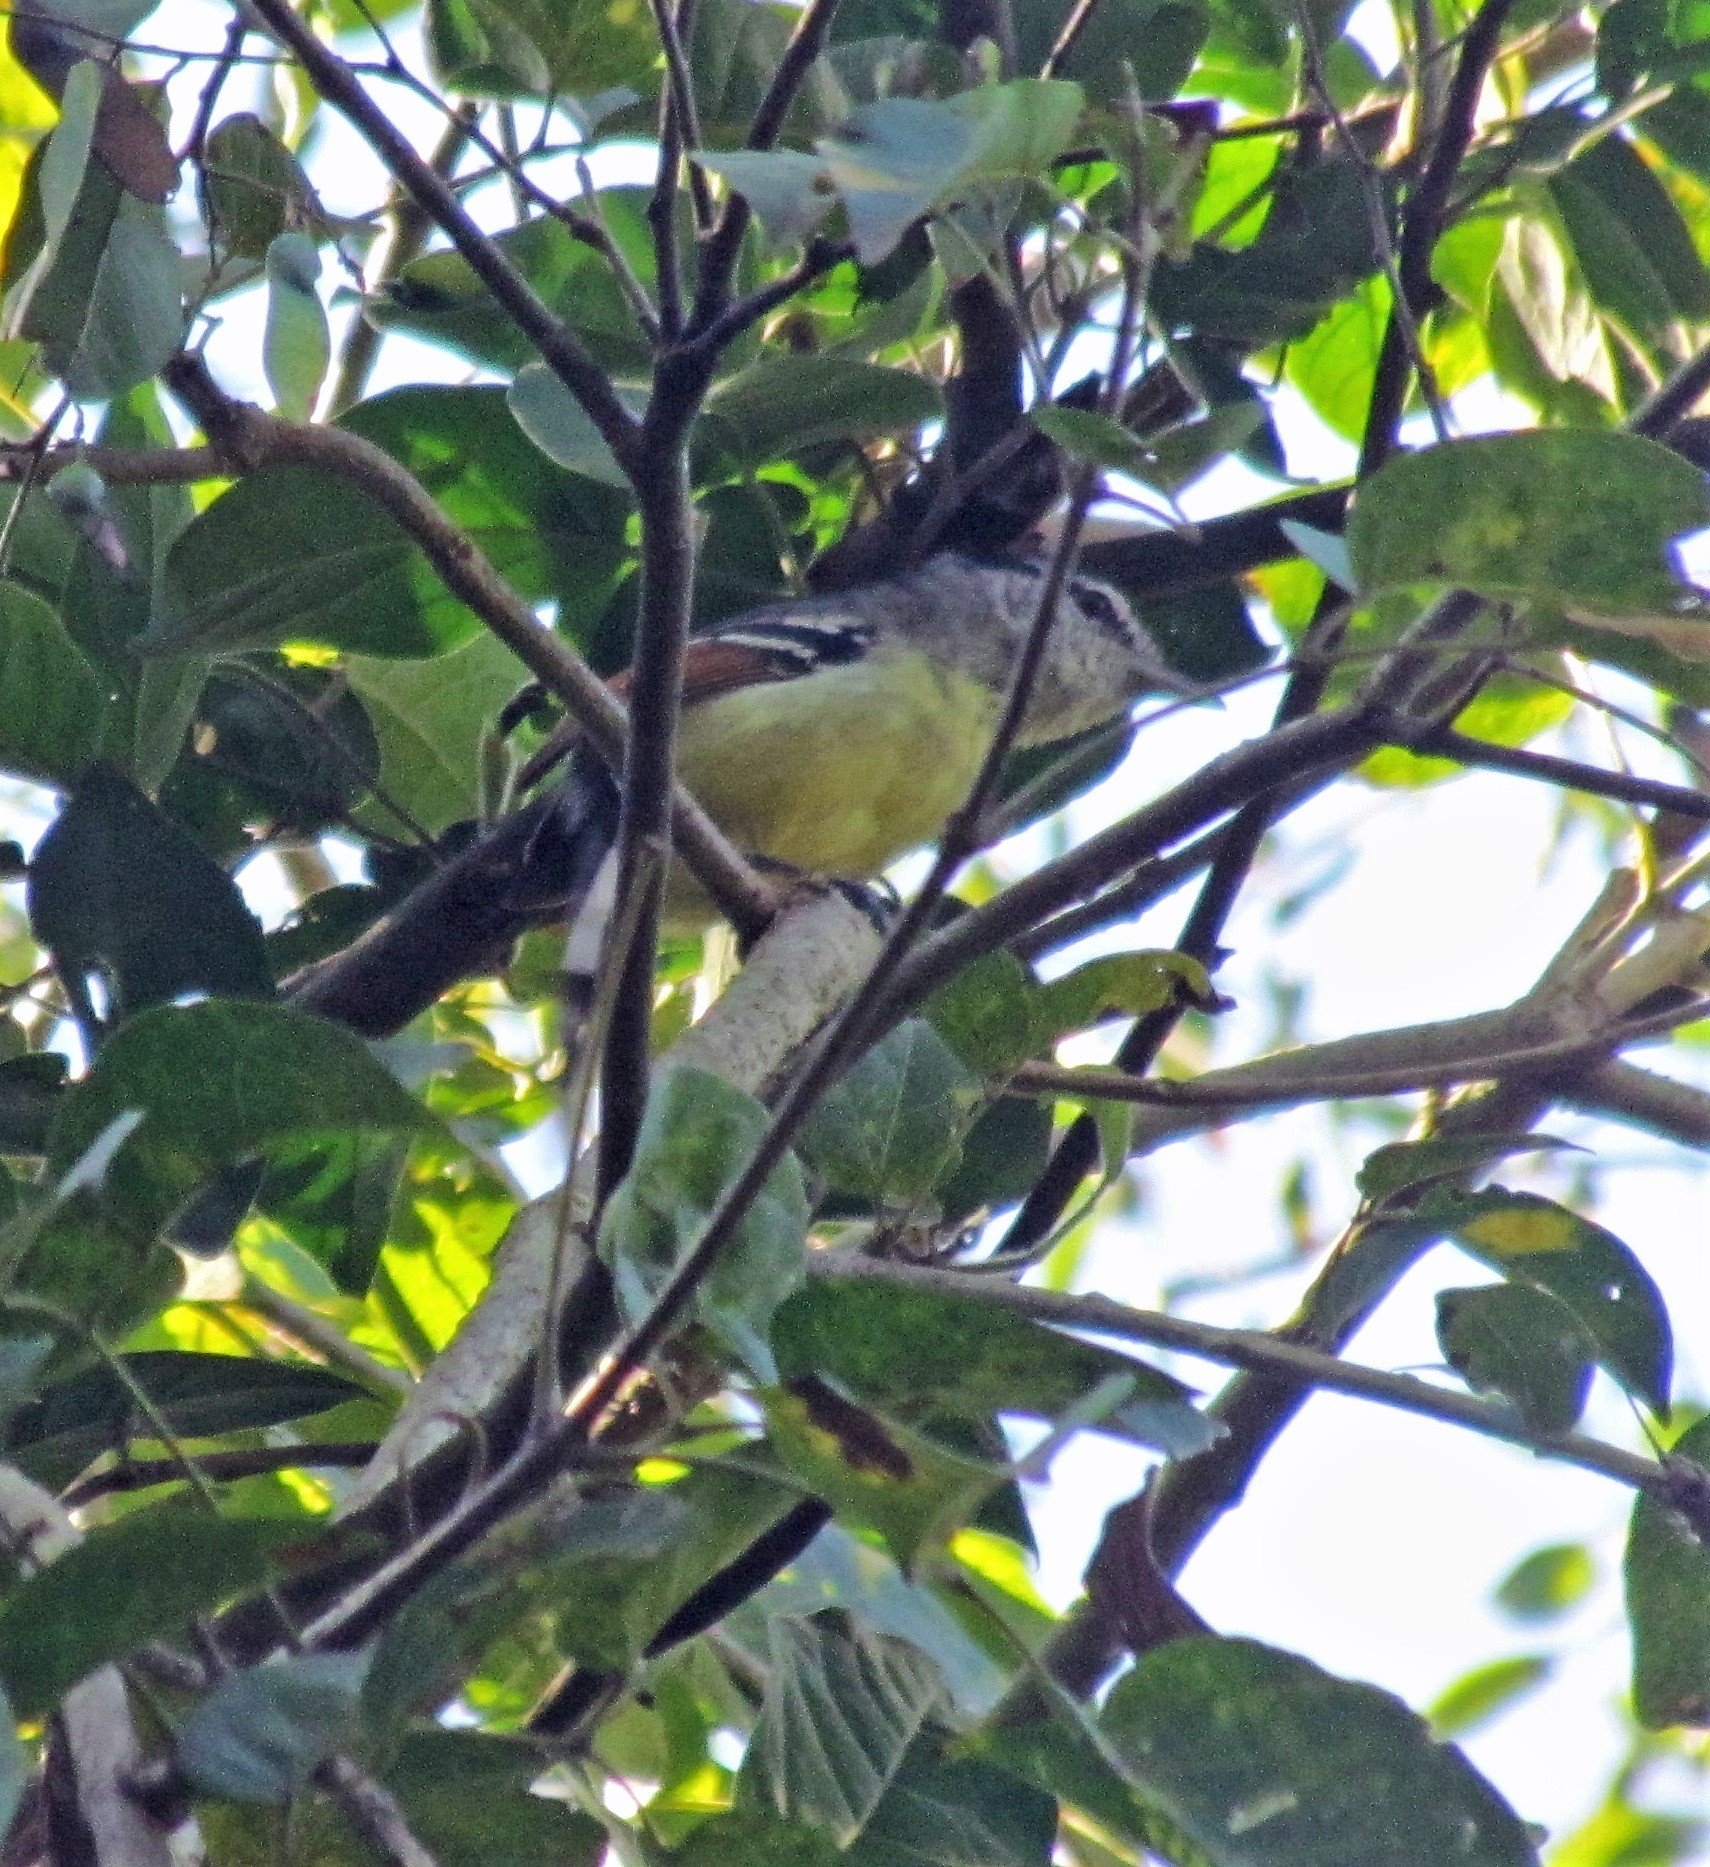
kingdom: Animalia
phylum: Chordata
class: Aves
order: Passeriformes
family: Thamnophilidae
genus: Herpsilochmus
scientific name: Herpsilochmus rufimarginatus
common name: Rufous-winged antwren
